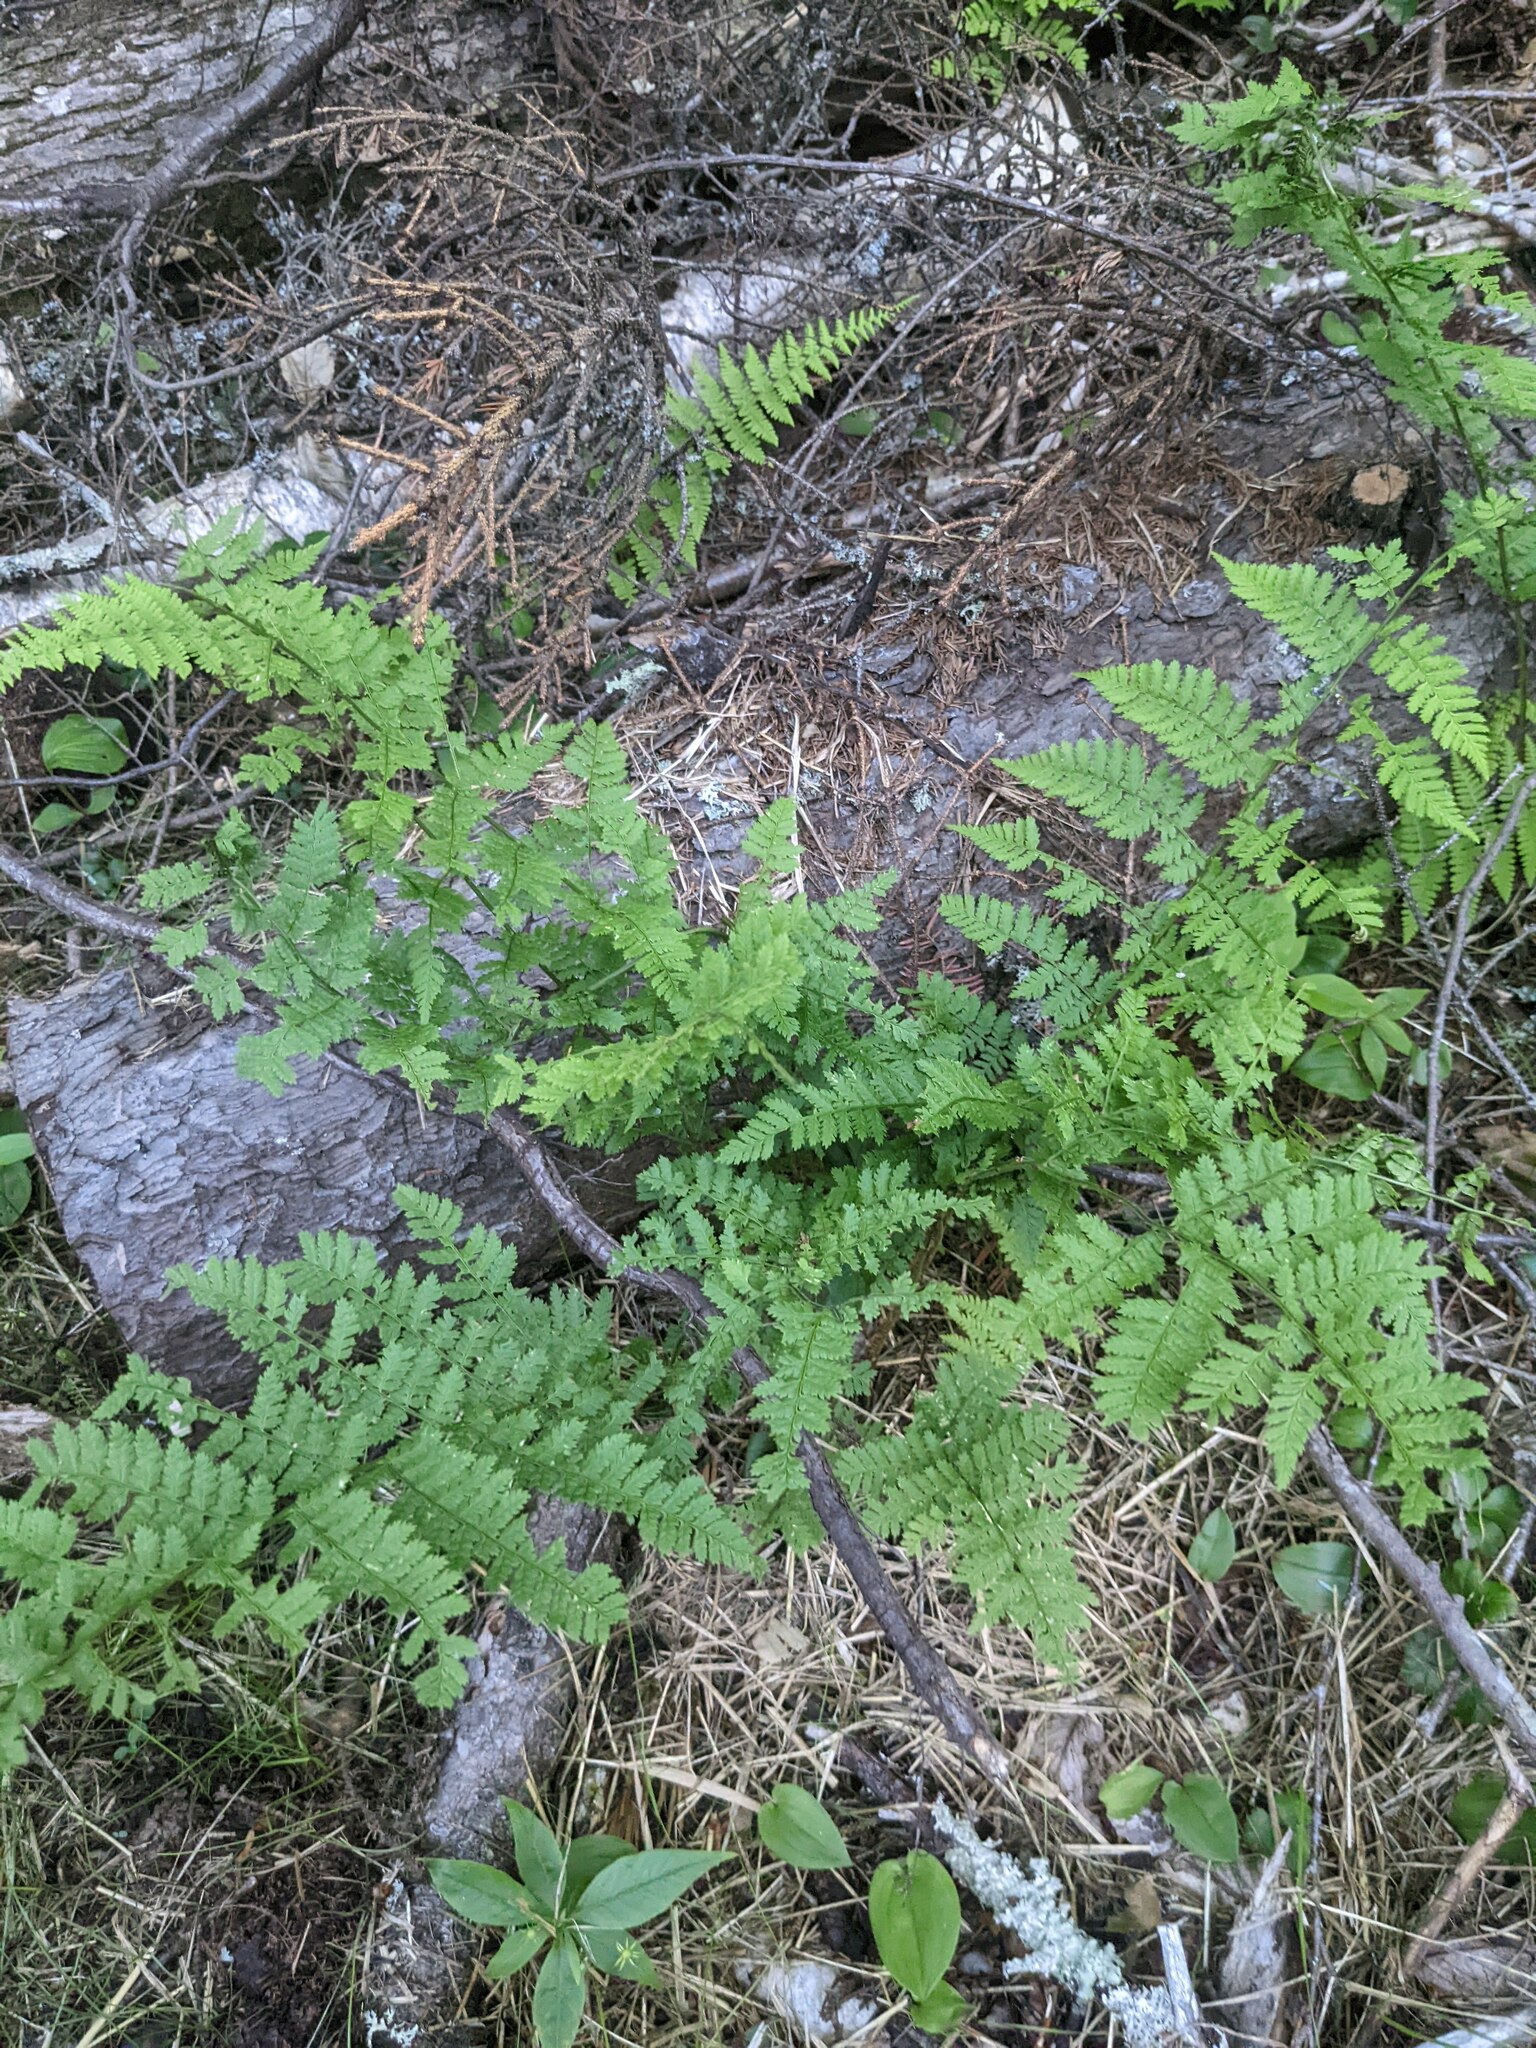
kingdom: Plantae
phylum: Tracheophyta
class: Polypodiopsida
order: Polypodiales
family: Dryopteridaceae
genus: Dryopteris
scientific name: Dryopteris intermedia
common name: Evergreen wood fern
